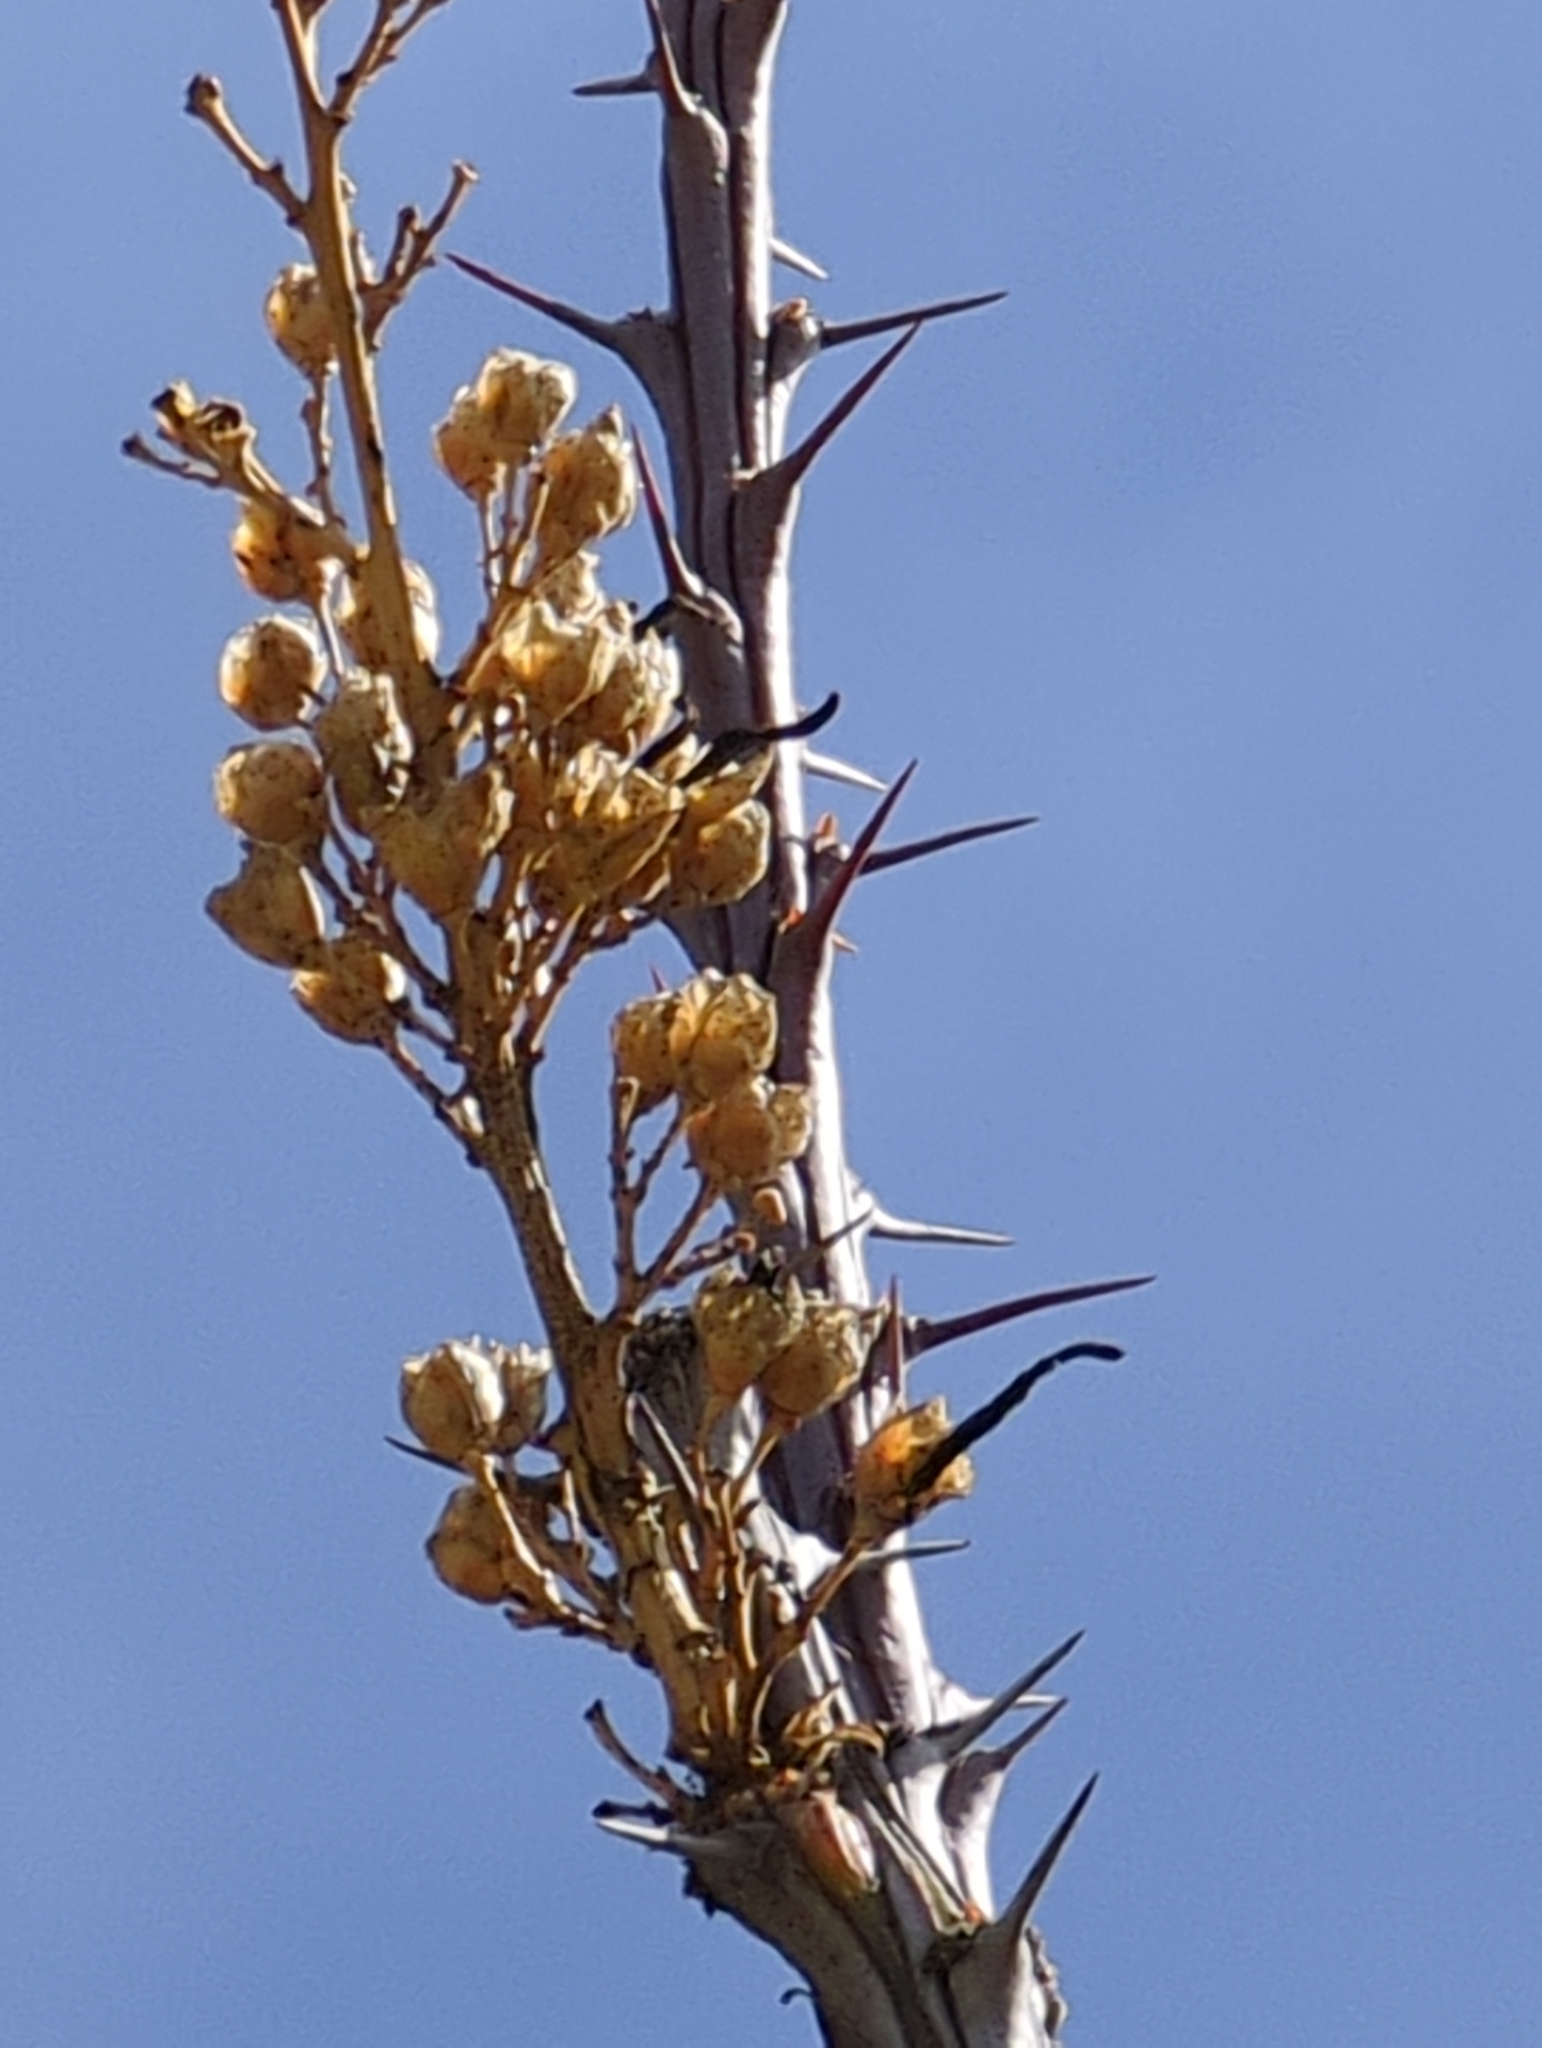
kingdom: Plantae
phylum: Tracheophyta
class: Magnoliopsida
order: Ericales
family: Fouquieriaceae
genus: Fouquieria
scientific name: Fouquieria splendens
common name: Vine-cactus
